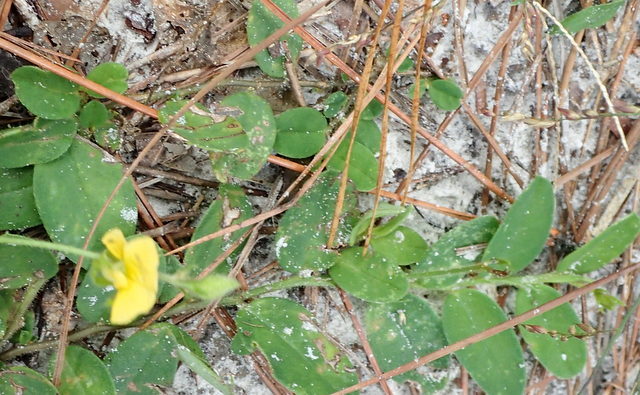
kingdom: Plantae
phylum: Tracheophyta
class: Magnoliopsida
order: Fabales
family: Fabaceae
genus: Crotalaria
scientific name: Crotalaria rotundifolia
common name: Prostrate rattlebox
